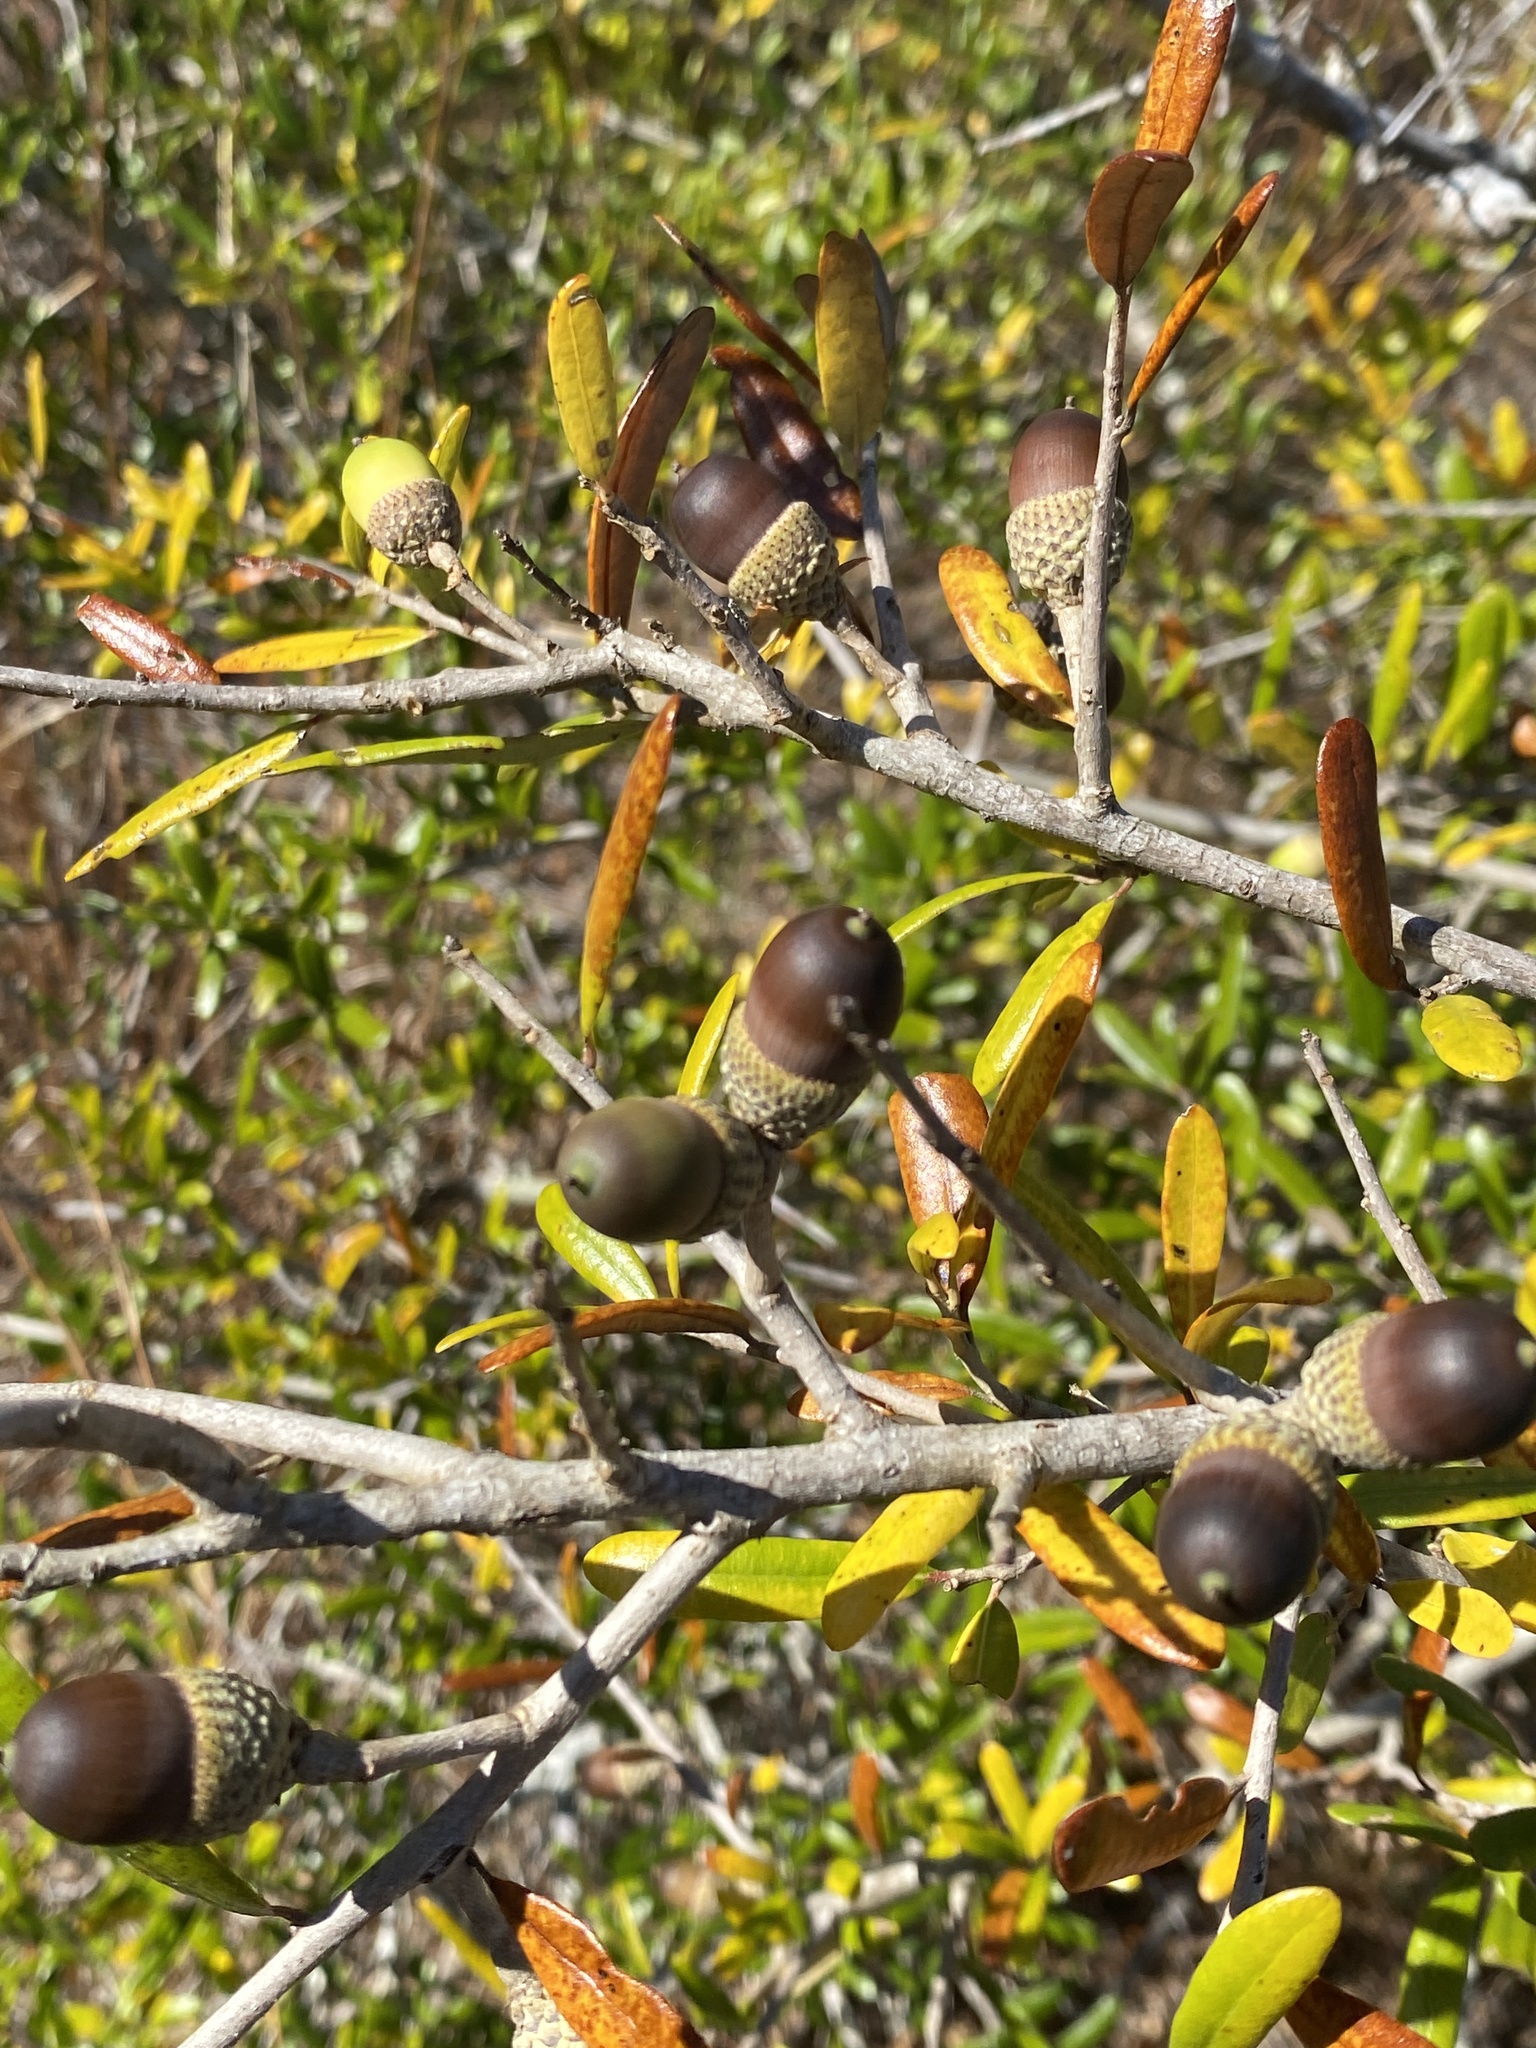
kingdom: Plantae
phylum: Tracheophyta
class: Magnoliopsida
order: Fagales
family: Fagaceae
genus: Quercus
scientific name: Quercus geminata
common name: Sand live oak
